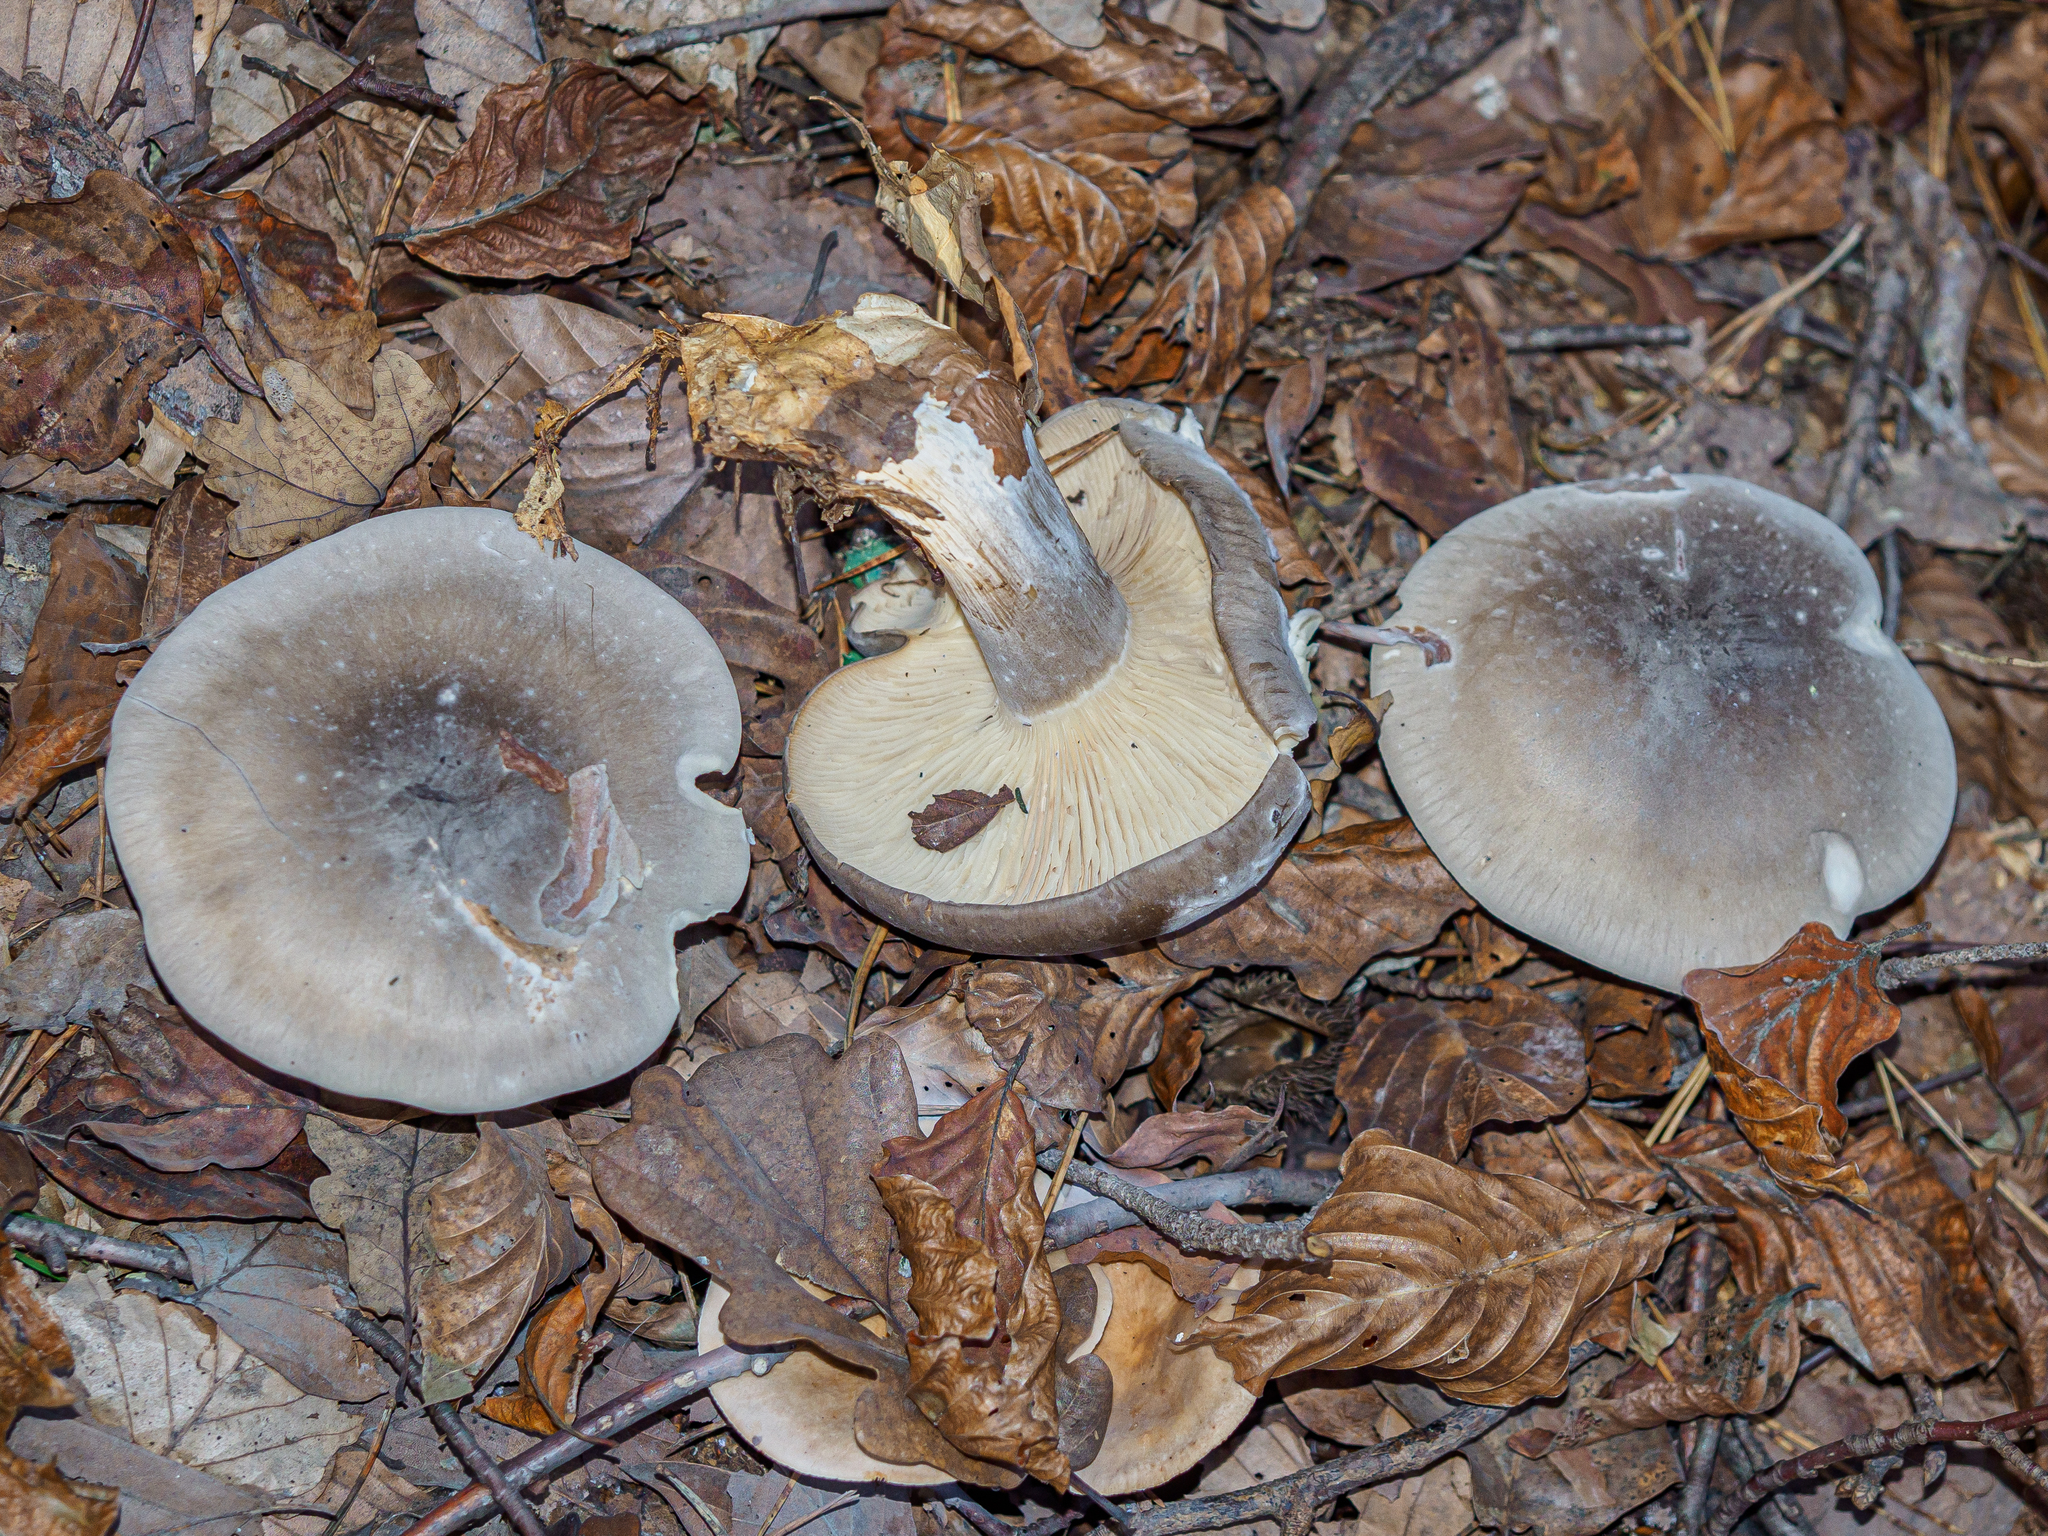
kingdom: Fungi
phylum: Basidiomycota
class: Agaricomycetes
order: Agaricales
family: Tricholomataceae
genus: Clitocybe
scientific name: Clitocybe nebularis
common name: Clouded agaric
